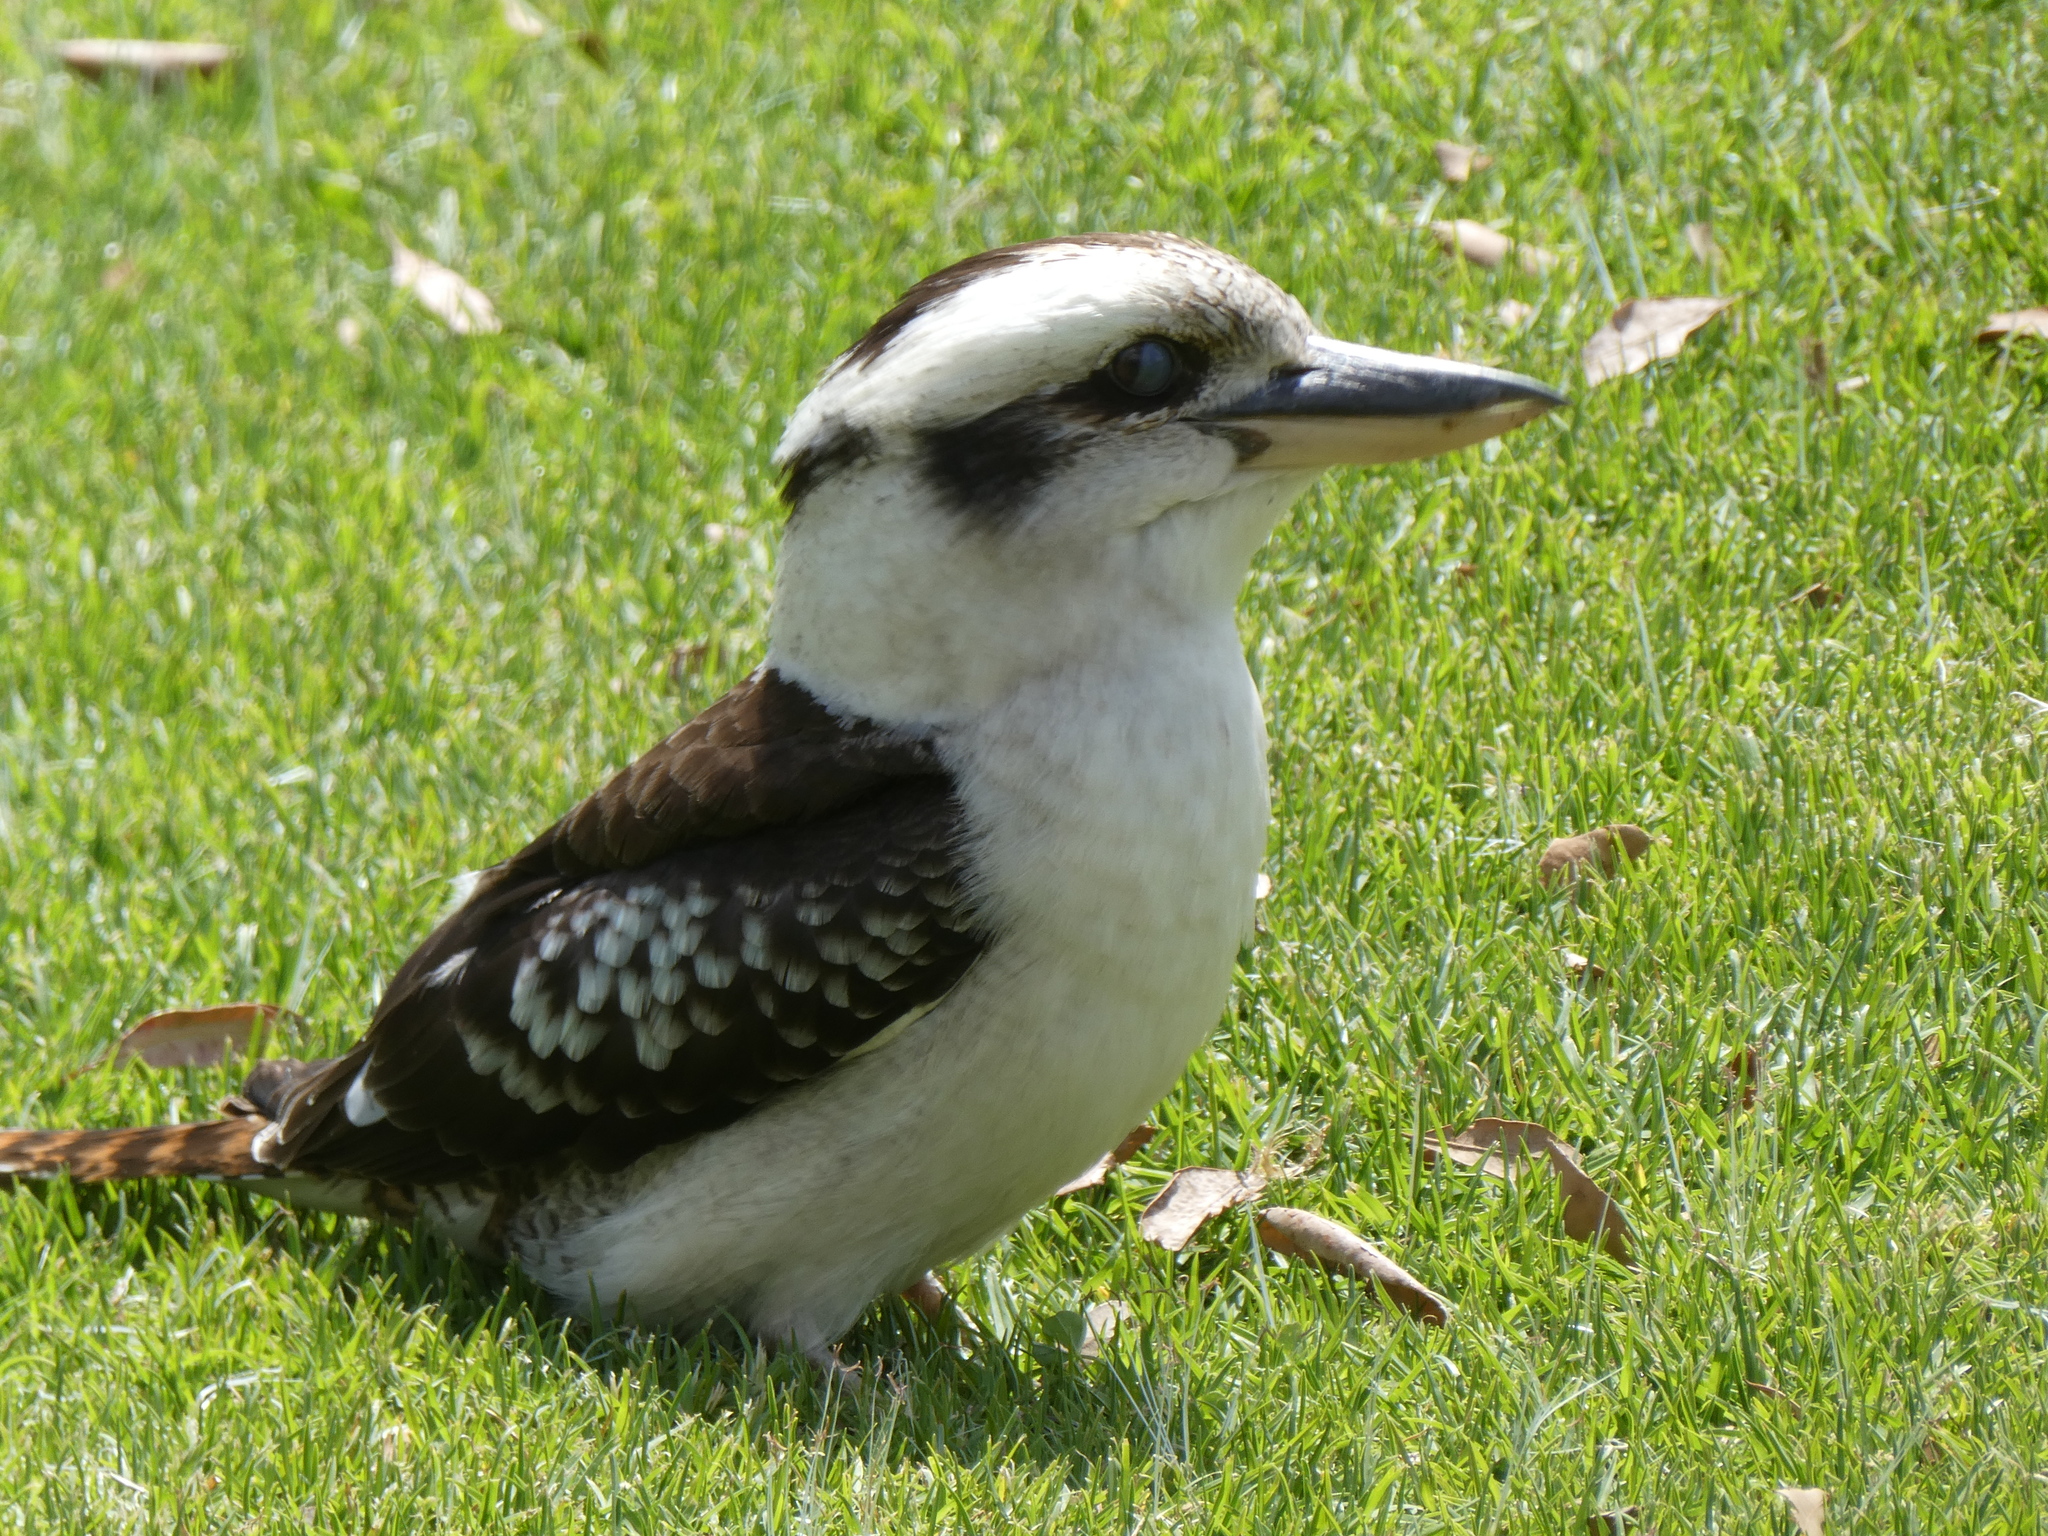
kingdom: Animalia
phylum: Chordata
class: Aves
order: Coraciiformes
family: Alcedinidae
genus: Dacelo
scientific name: Dacelo novaeguineae
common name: Laughing kookaburra
